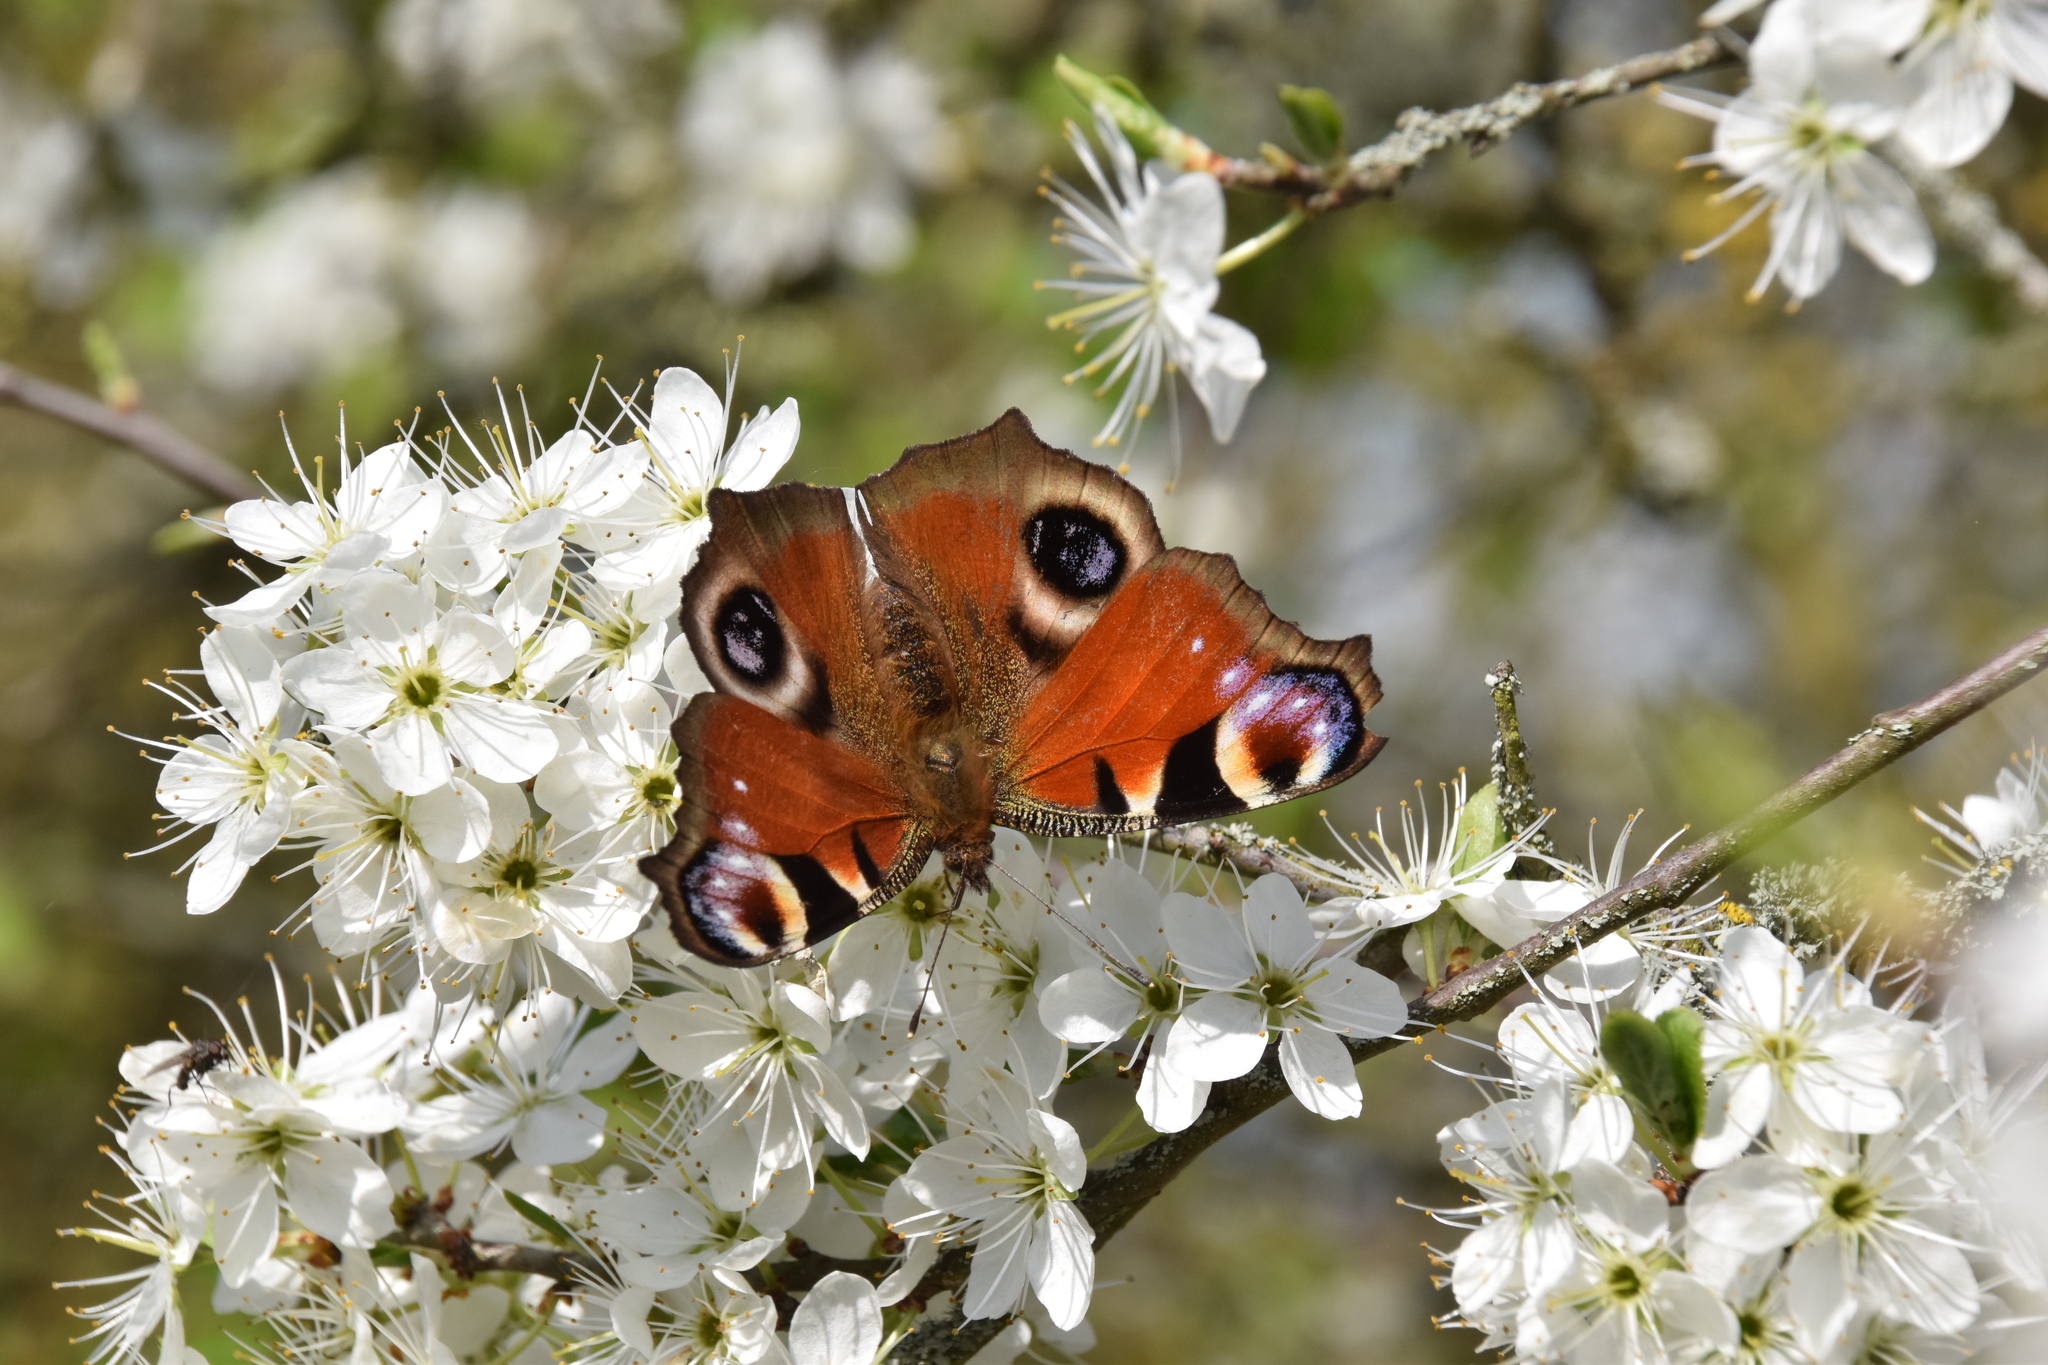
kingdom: Animalia
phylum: Arthropoda
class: Insecta
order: Lepidoptera
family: Nymphalidae
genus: Aglais
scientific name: Aglais io
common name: Peacock
